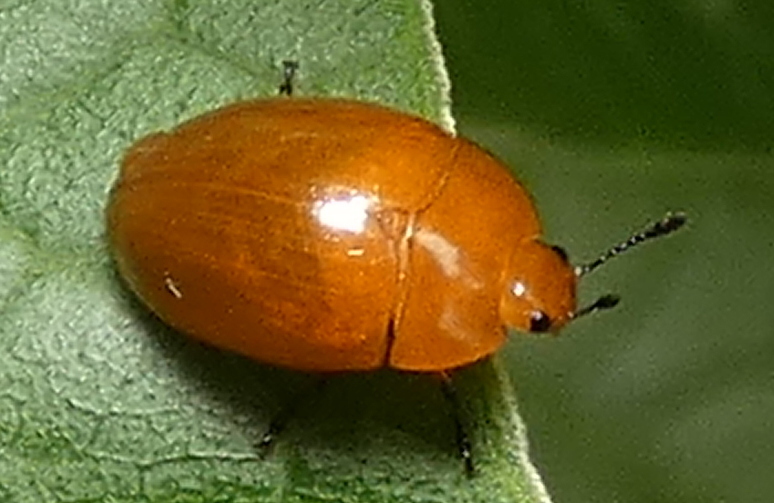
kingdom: Animalia
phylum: Arthropoda
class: Insecta
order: Coleoptera
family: Erotylidae
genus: Iphiclus
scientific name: Iphiclus
